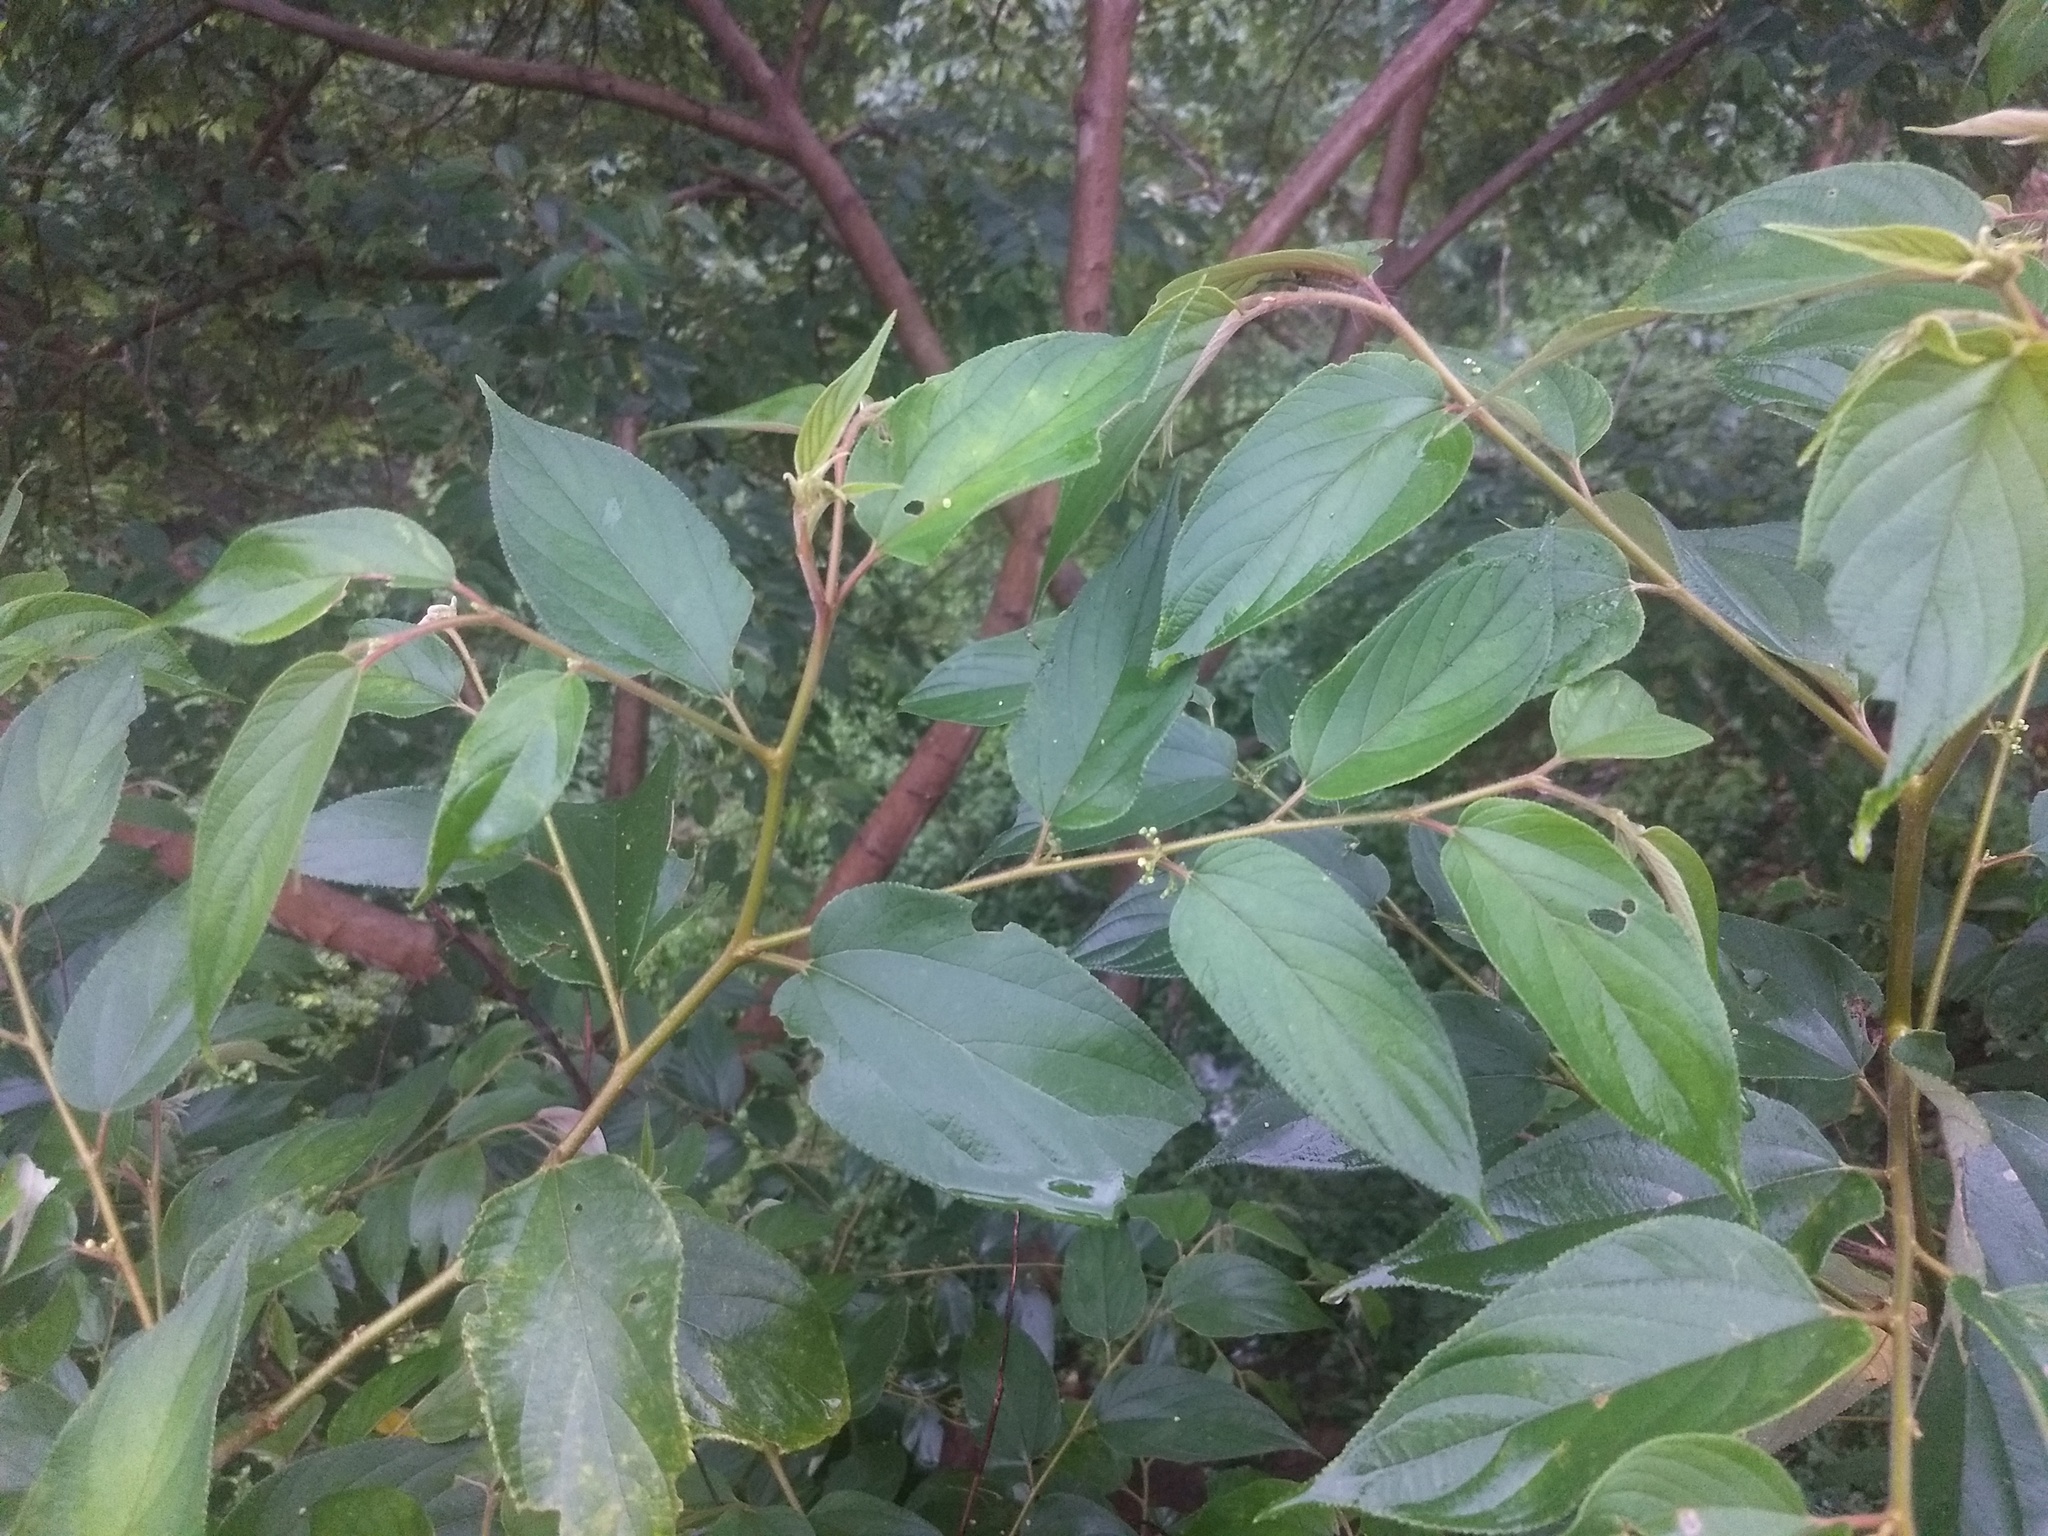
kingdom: Plantae
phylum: Tracheophyta
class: Magnoliopsida
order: Rosales
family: Cannabaceae
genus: Trema
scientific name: Trema orientale
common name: Indian charcoal tree
